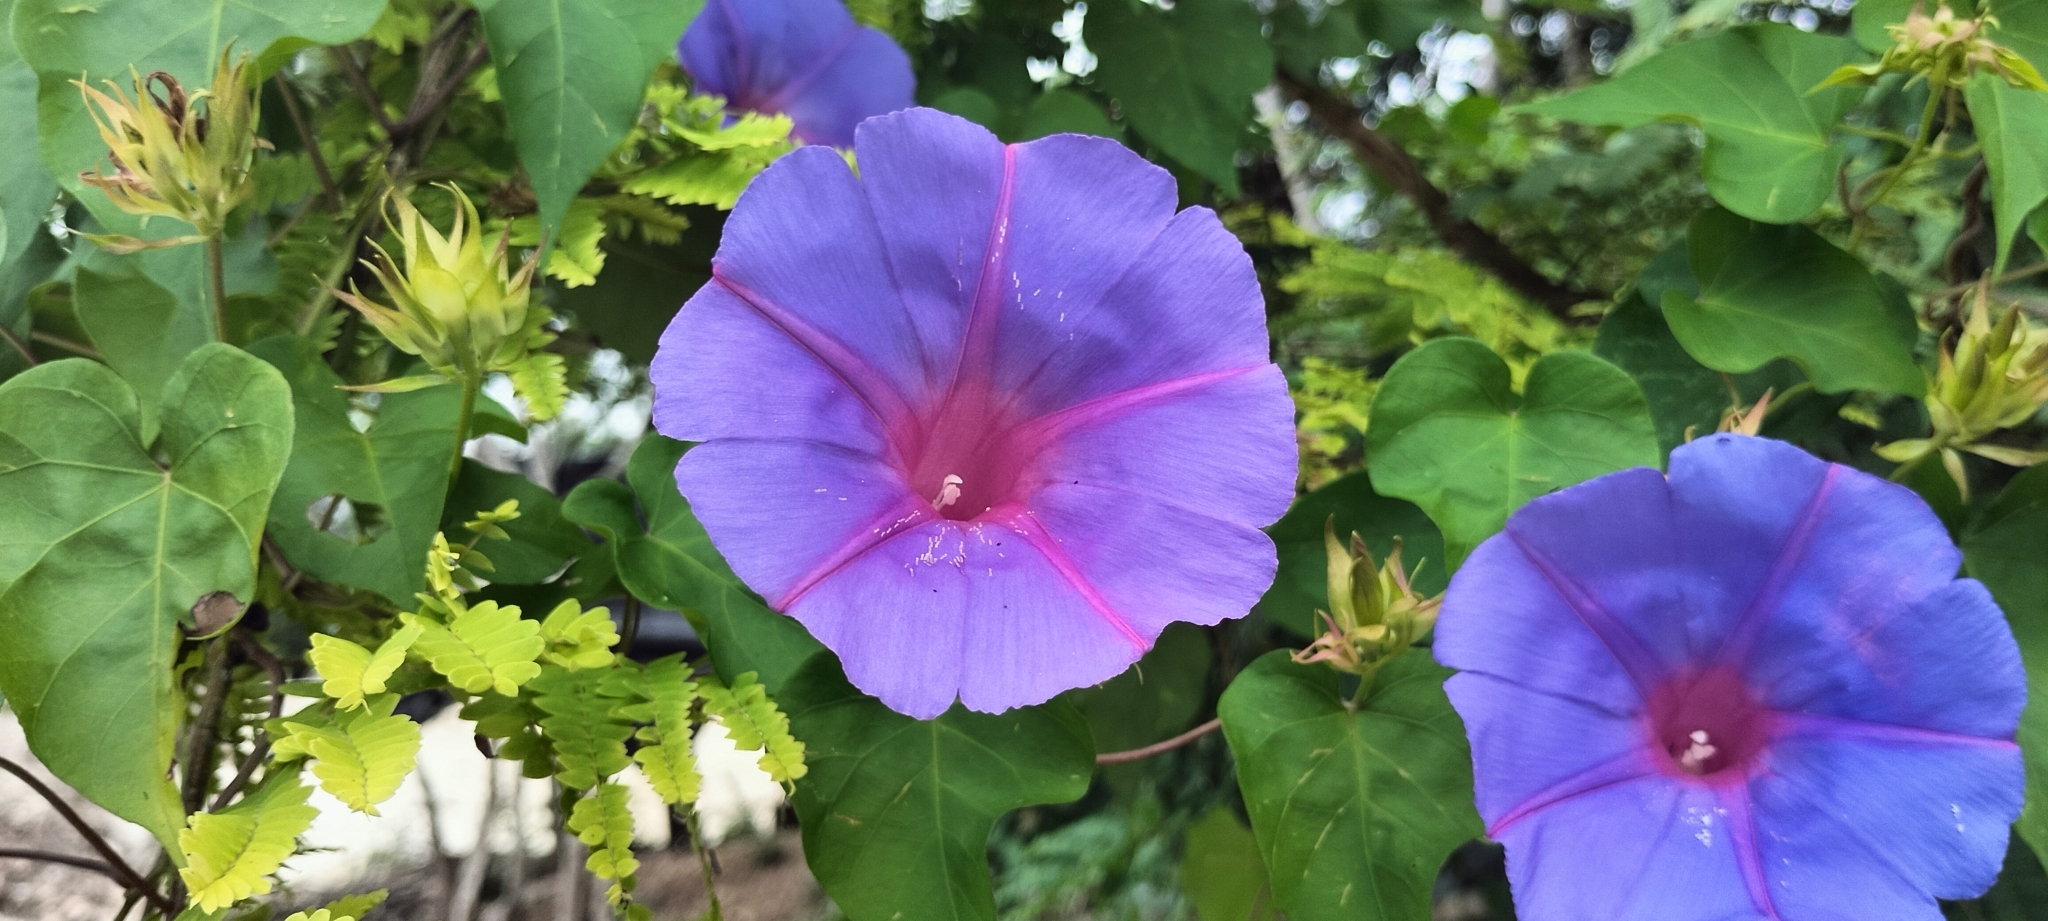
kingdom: Plantae
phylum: Tracheophyta
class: Magnoliopsida
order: Solanales
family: Convolvulaceae
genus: Ipomoea
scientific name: Ipomoea indica
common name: Blue dawnflower
